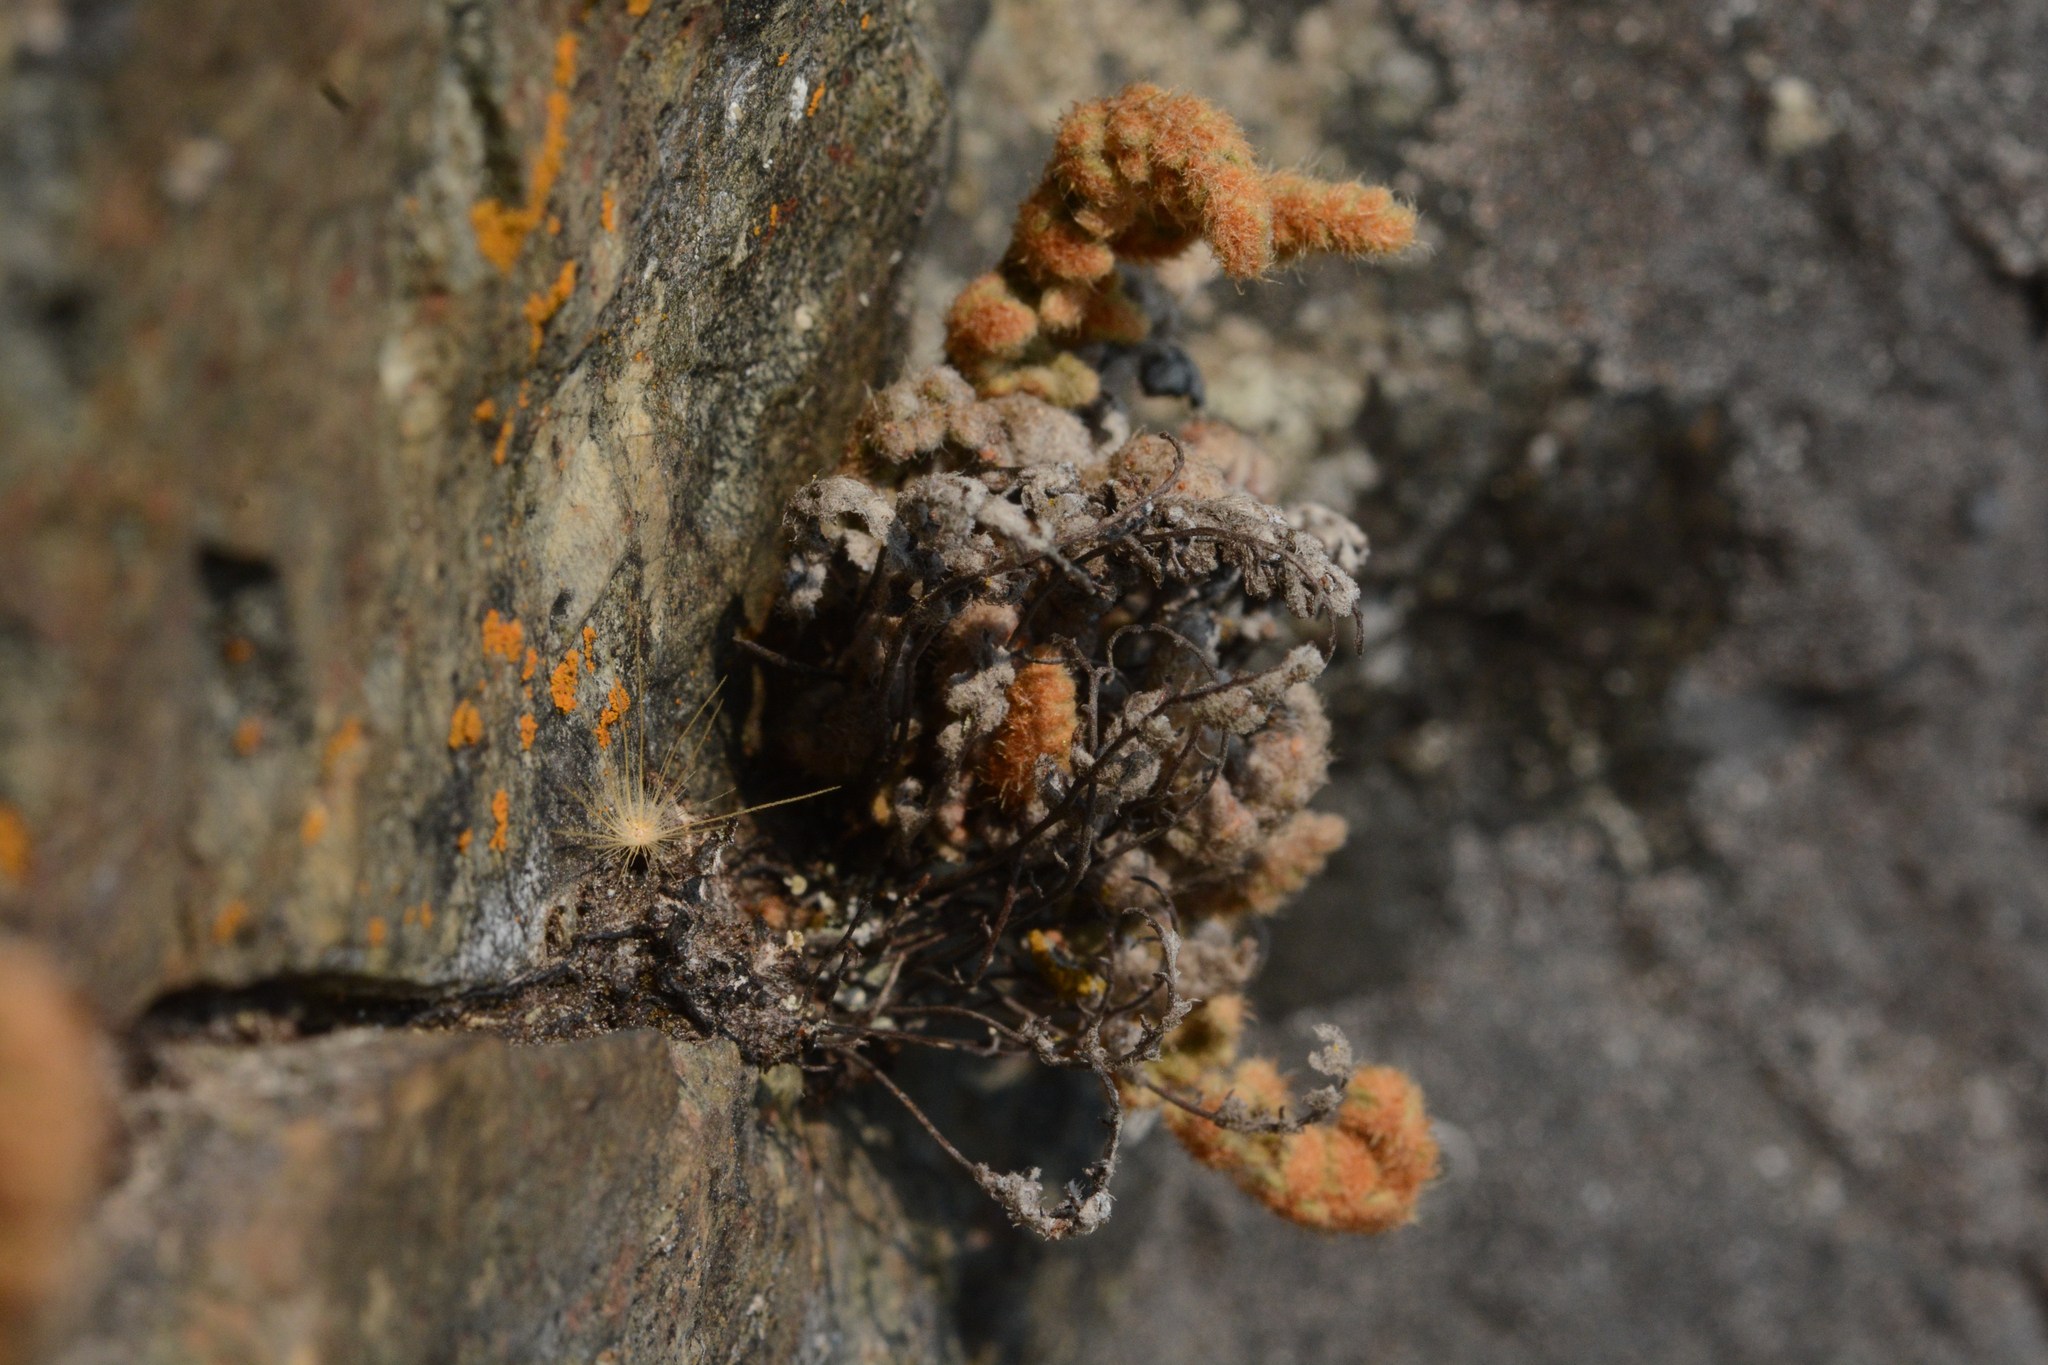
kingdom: Plantae
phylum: Tracheophyta
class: Polypodiopsida
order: Polypodiales
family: Pteridaceae
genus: Myriopteris
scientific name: Myriopteris gracillima
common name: Lace fern
